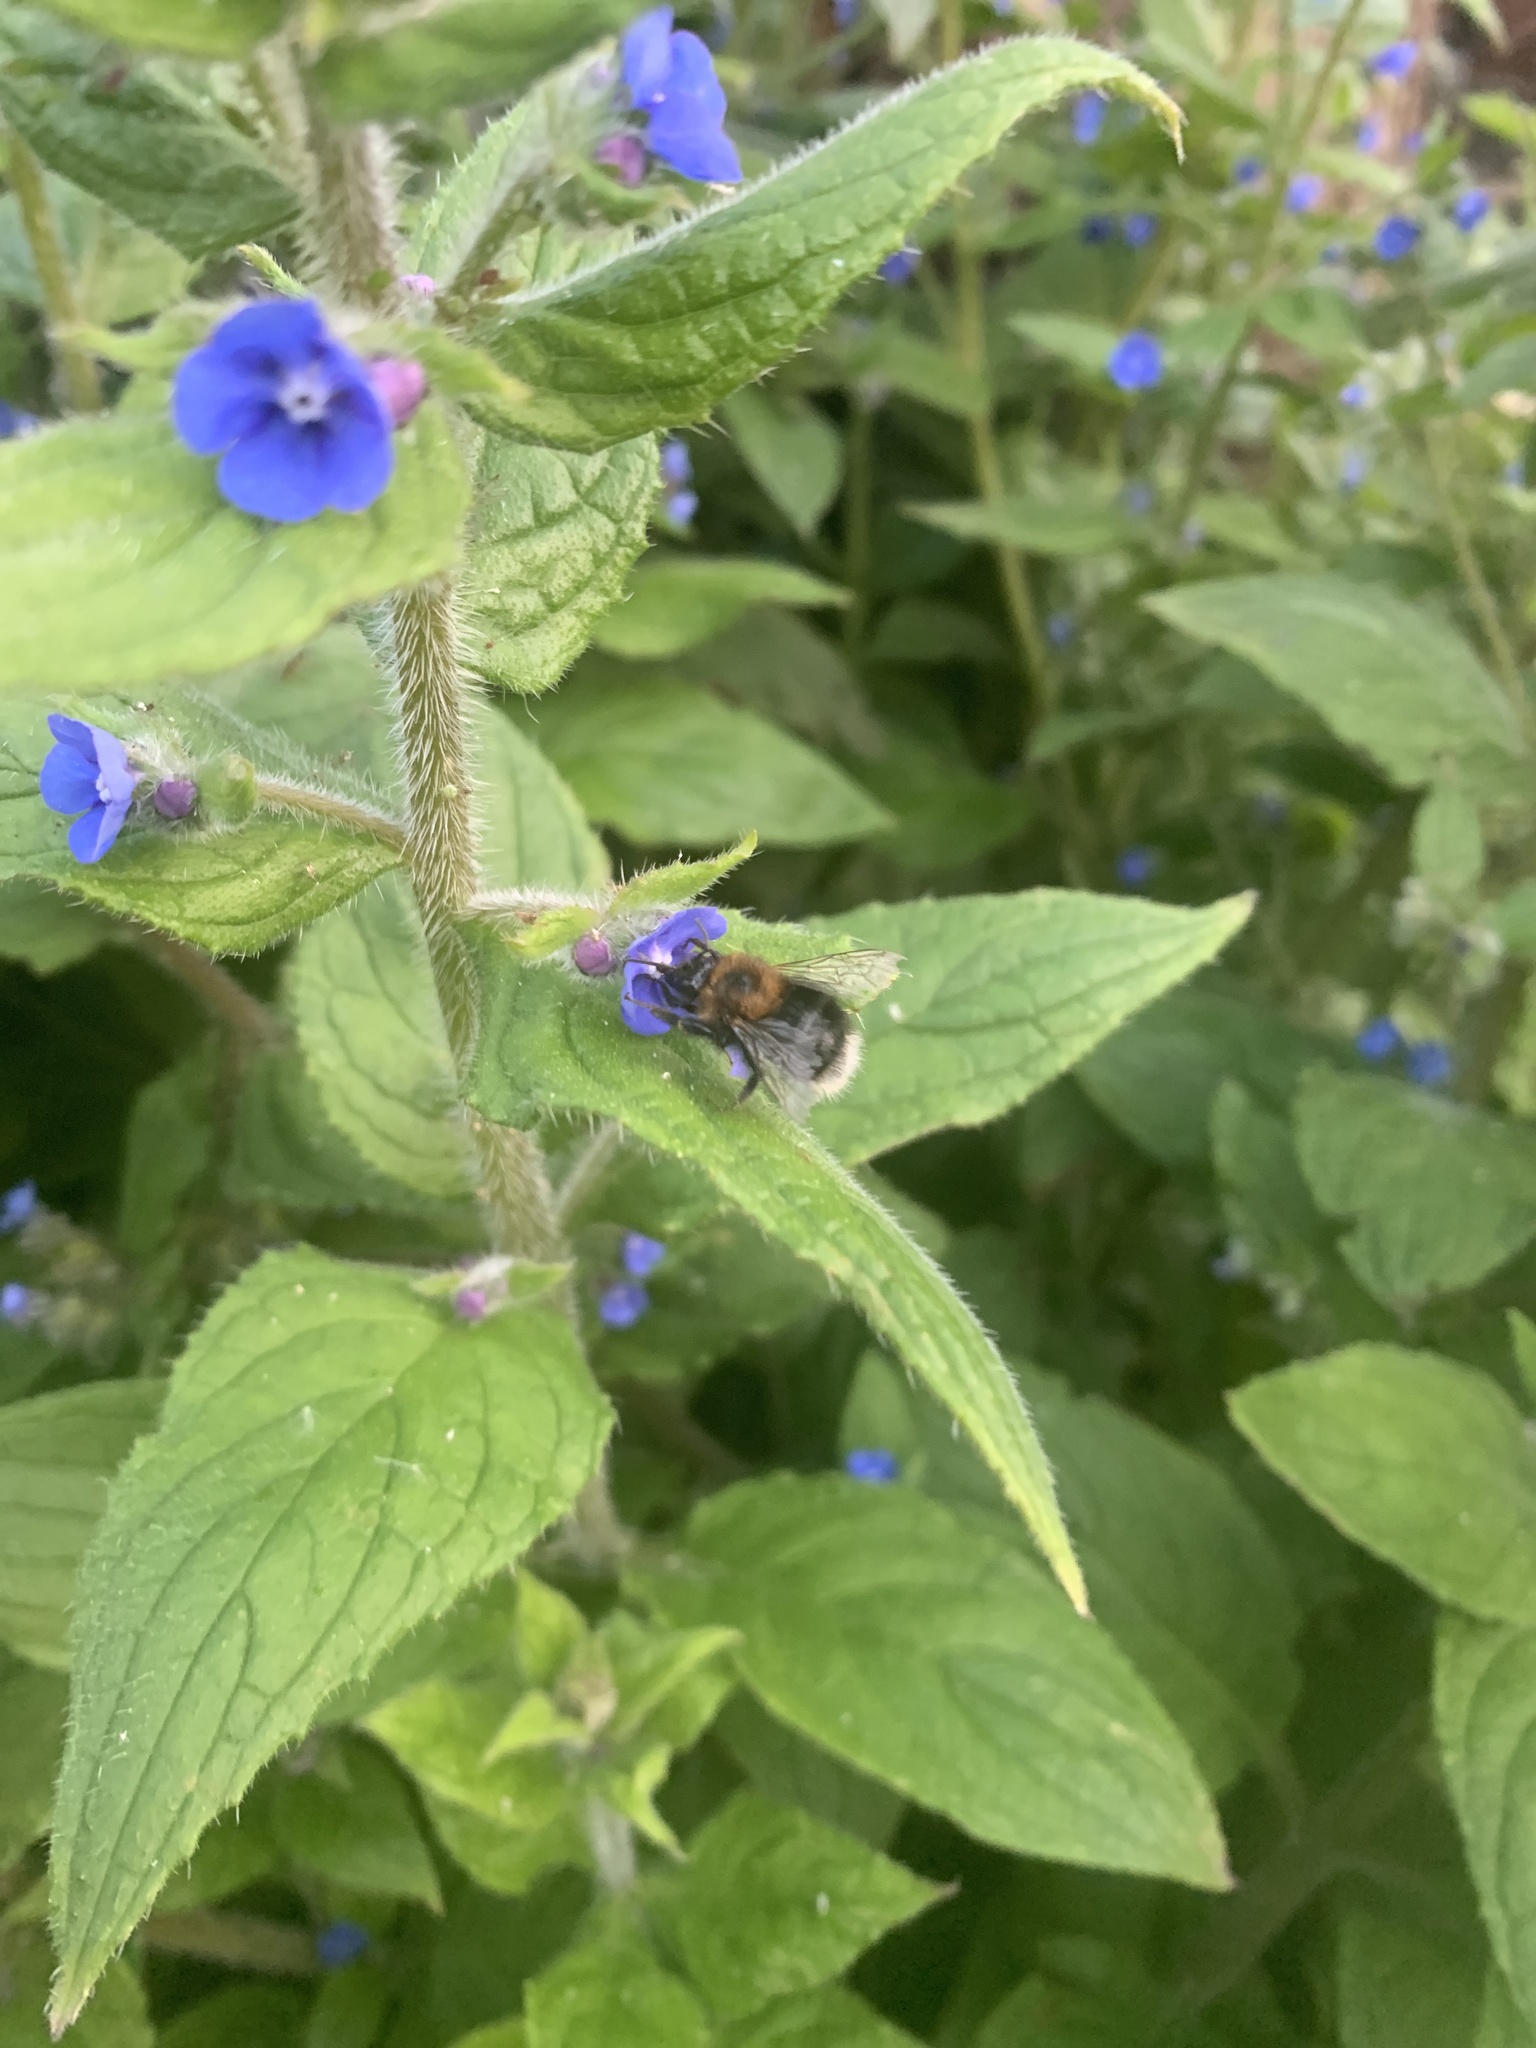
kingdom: Animalia
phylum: Arthropoda
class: Insecta
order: Hymenoptera
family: Apidae
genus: Bombus
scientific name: Bombus hypnorum
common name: New garden bumblebee
